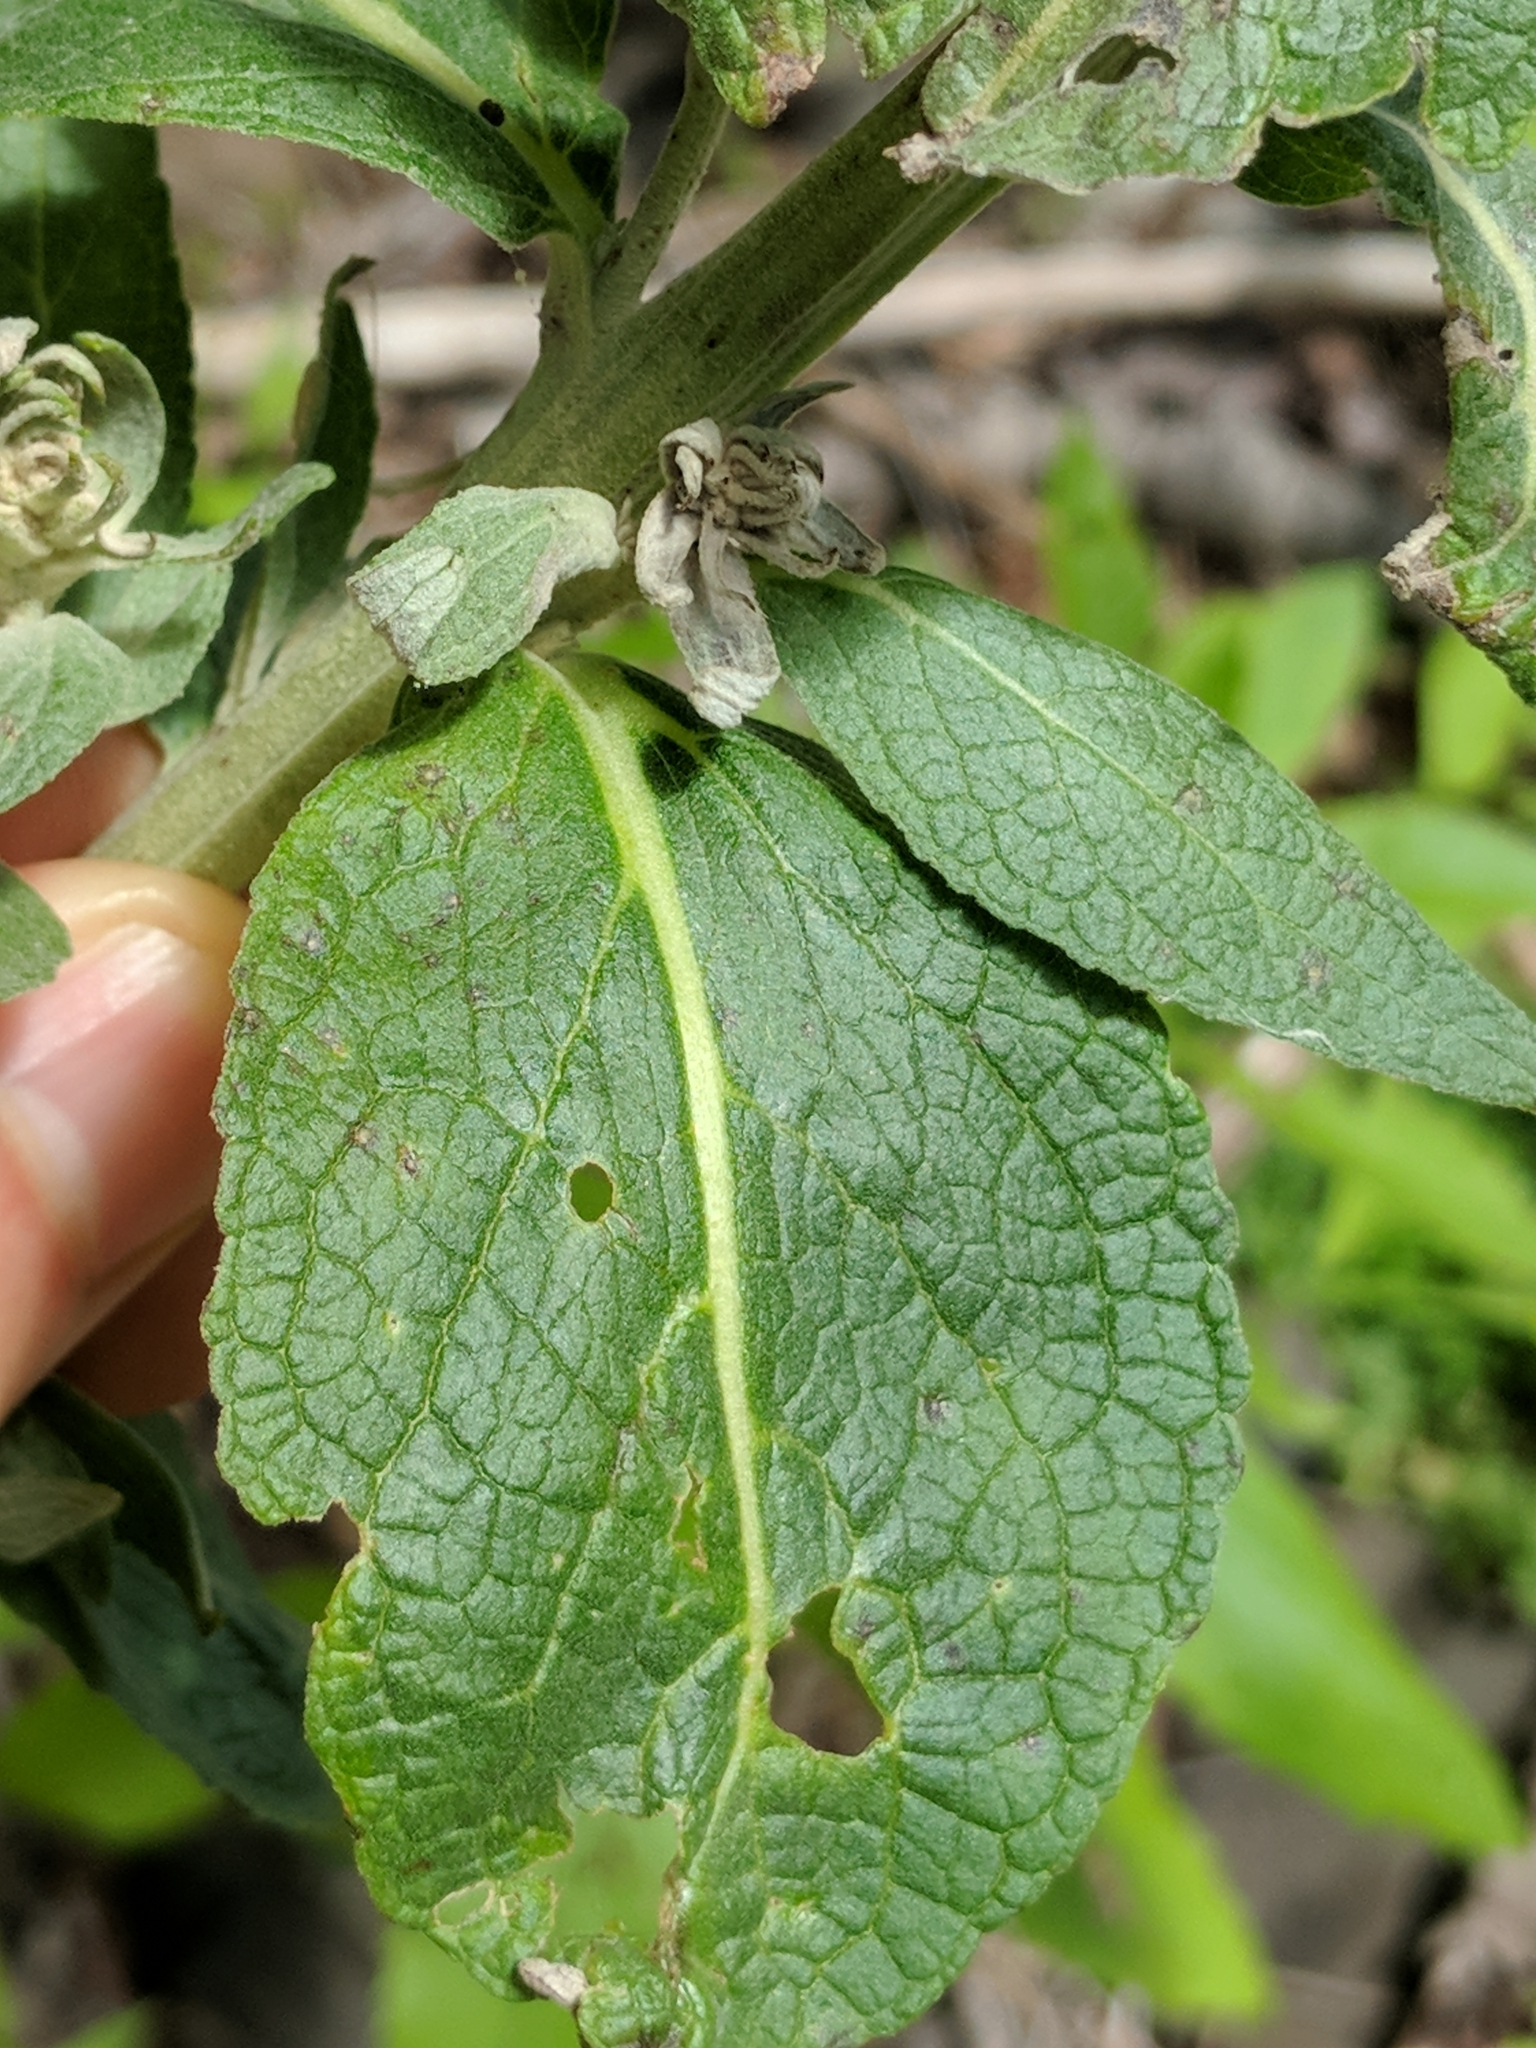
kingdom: Plantae
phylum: Tracheophyta
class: Magnoliopsida
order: Lamiales
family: Scrophulariaceae
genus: Verbascum
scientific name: Verbascum lychnitis
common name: White mullein
